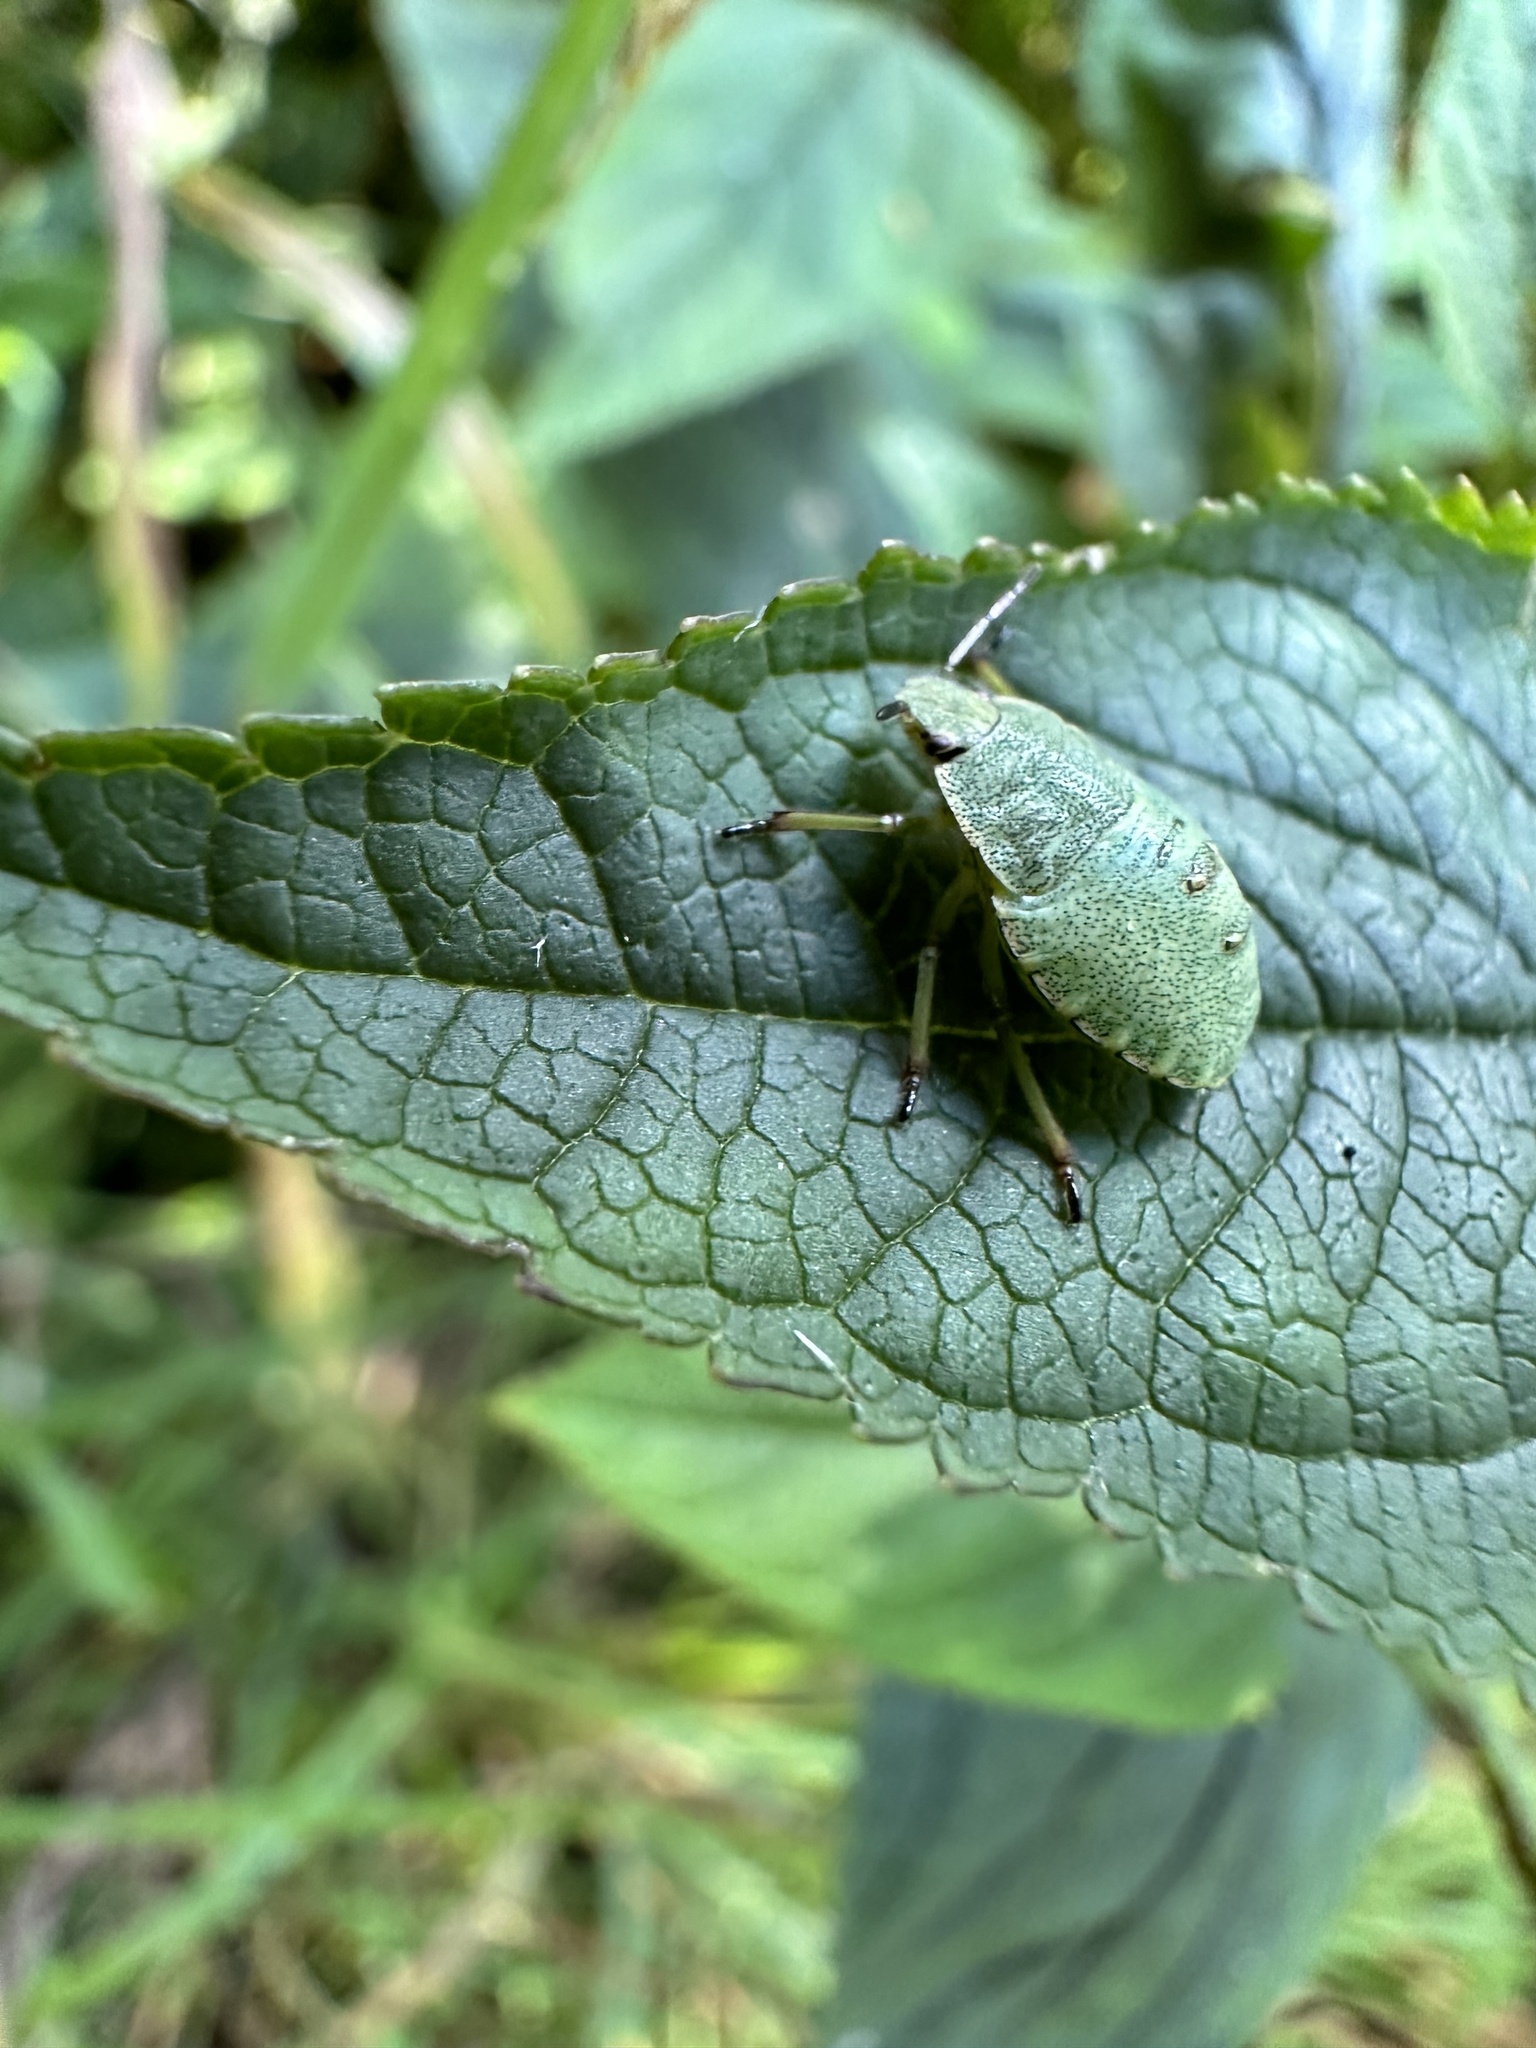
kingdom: Animalia
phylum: Arthropoda
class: Insecta
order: Hemiptera
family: Pentatomidae
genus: Palomena
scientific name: Palomena prasina
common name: Green shieldbug
